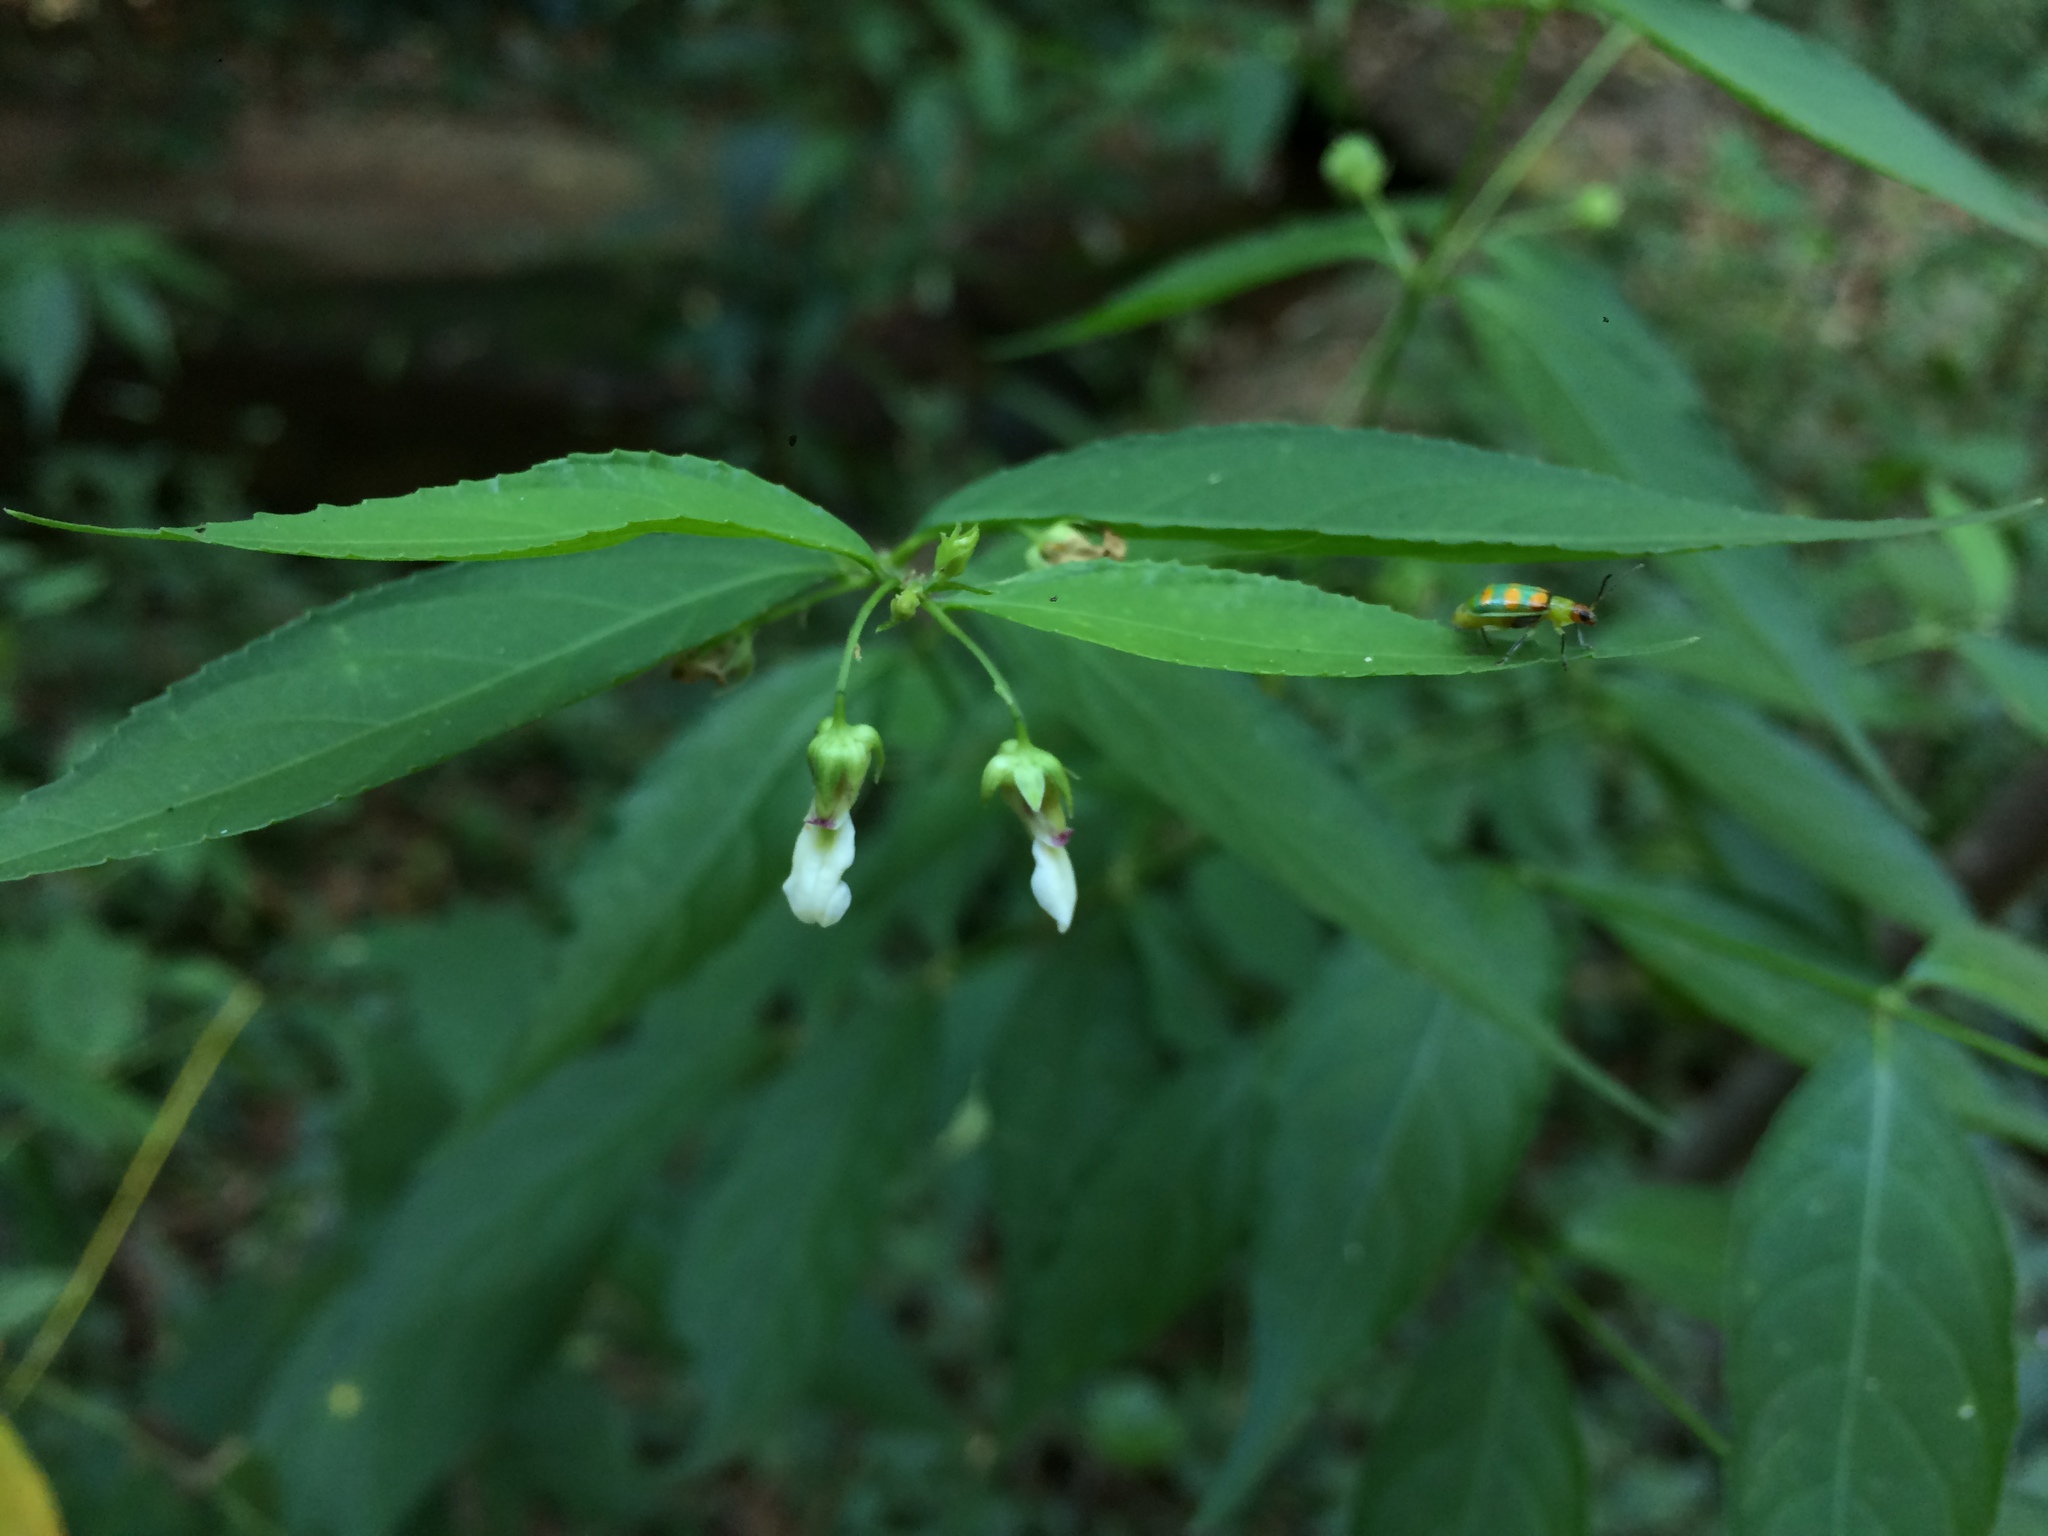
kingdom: Animalia
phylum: Arthropoda
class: Insecta
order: Coleoptera
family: Chrysomelidae
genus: Diabrotica
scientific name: Diabrotica speciosa
